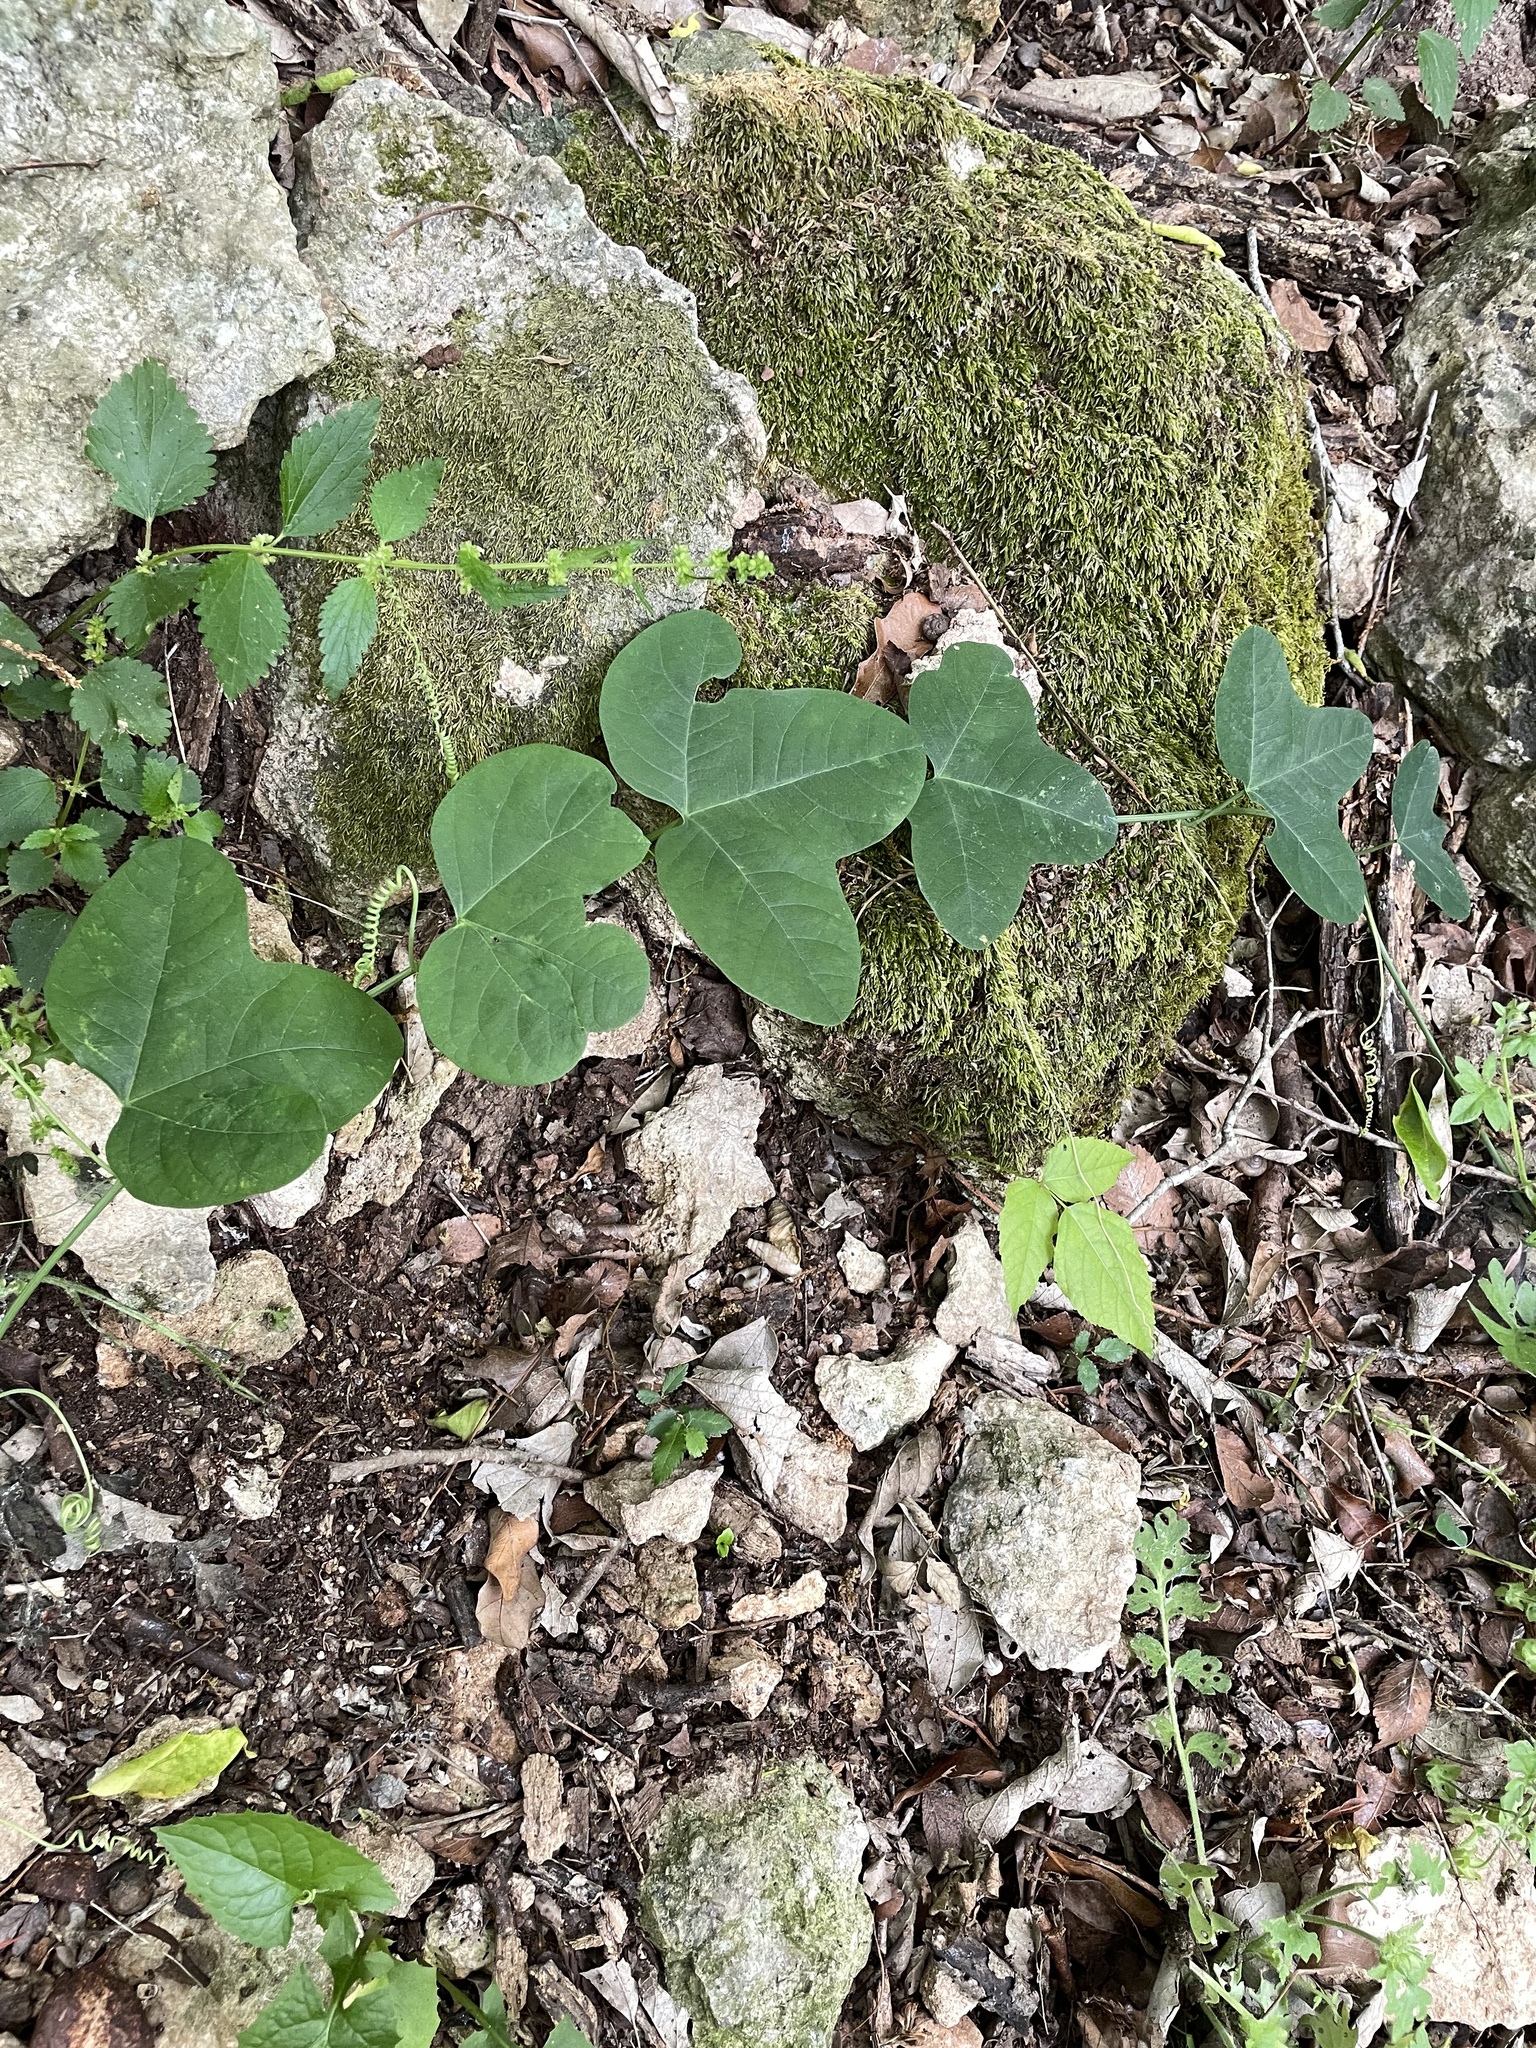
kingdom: Plantae
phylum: Tracheophyta
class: Magnoliopsida
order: Malpighiales
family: Passifloraceae
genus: Passiflora
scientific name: Passiflora lutea
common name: Yellow passionflower
